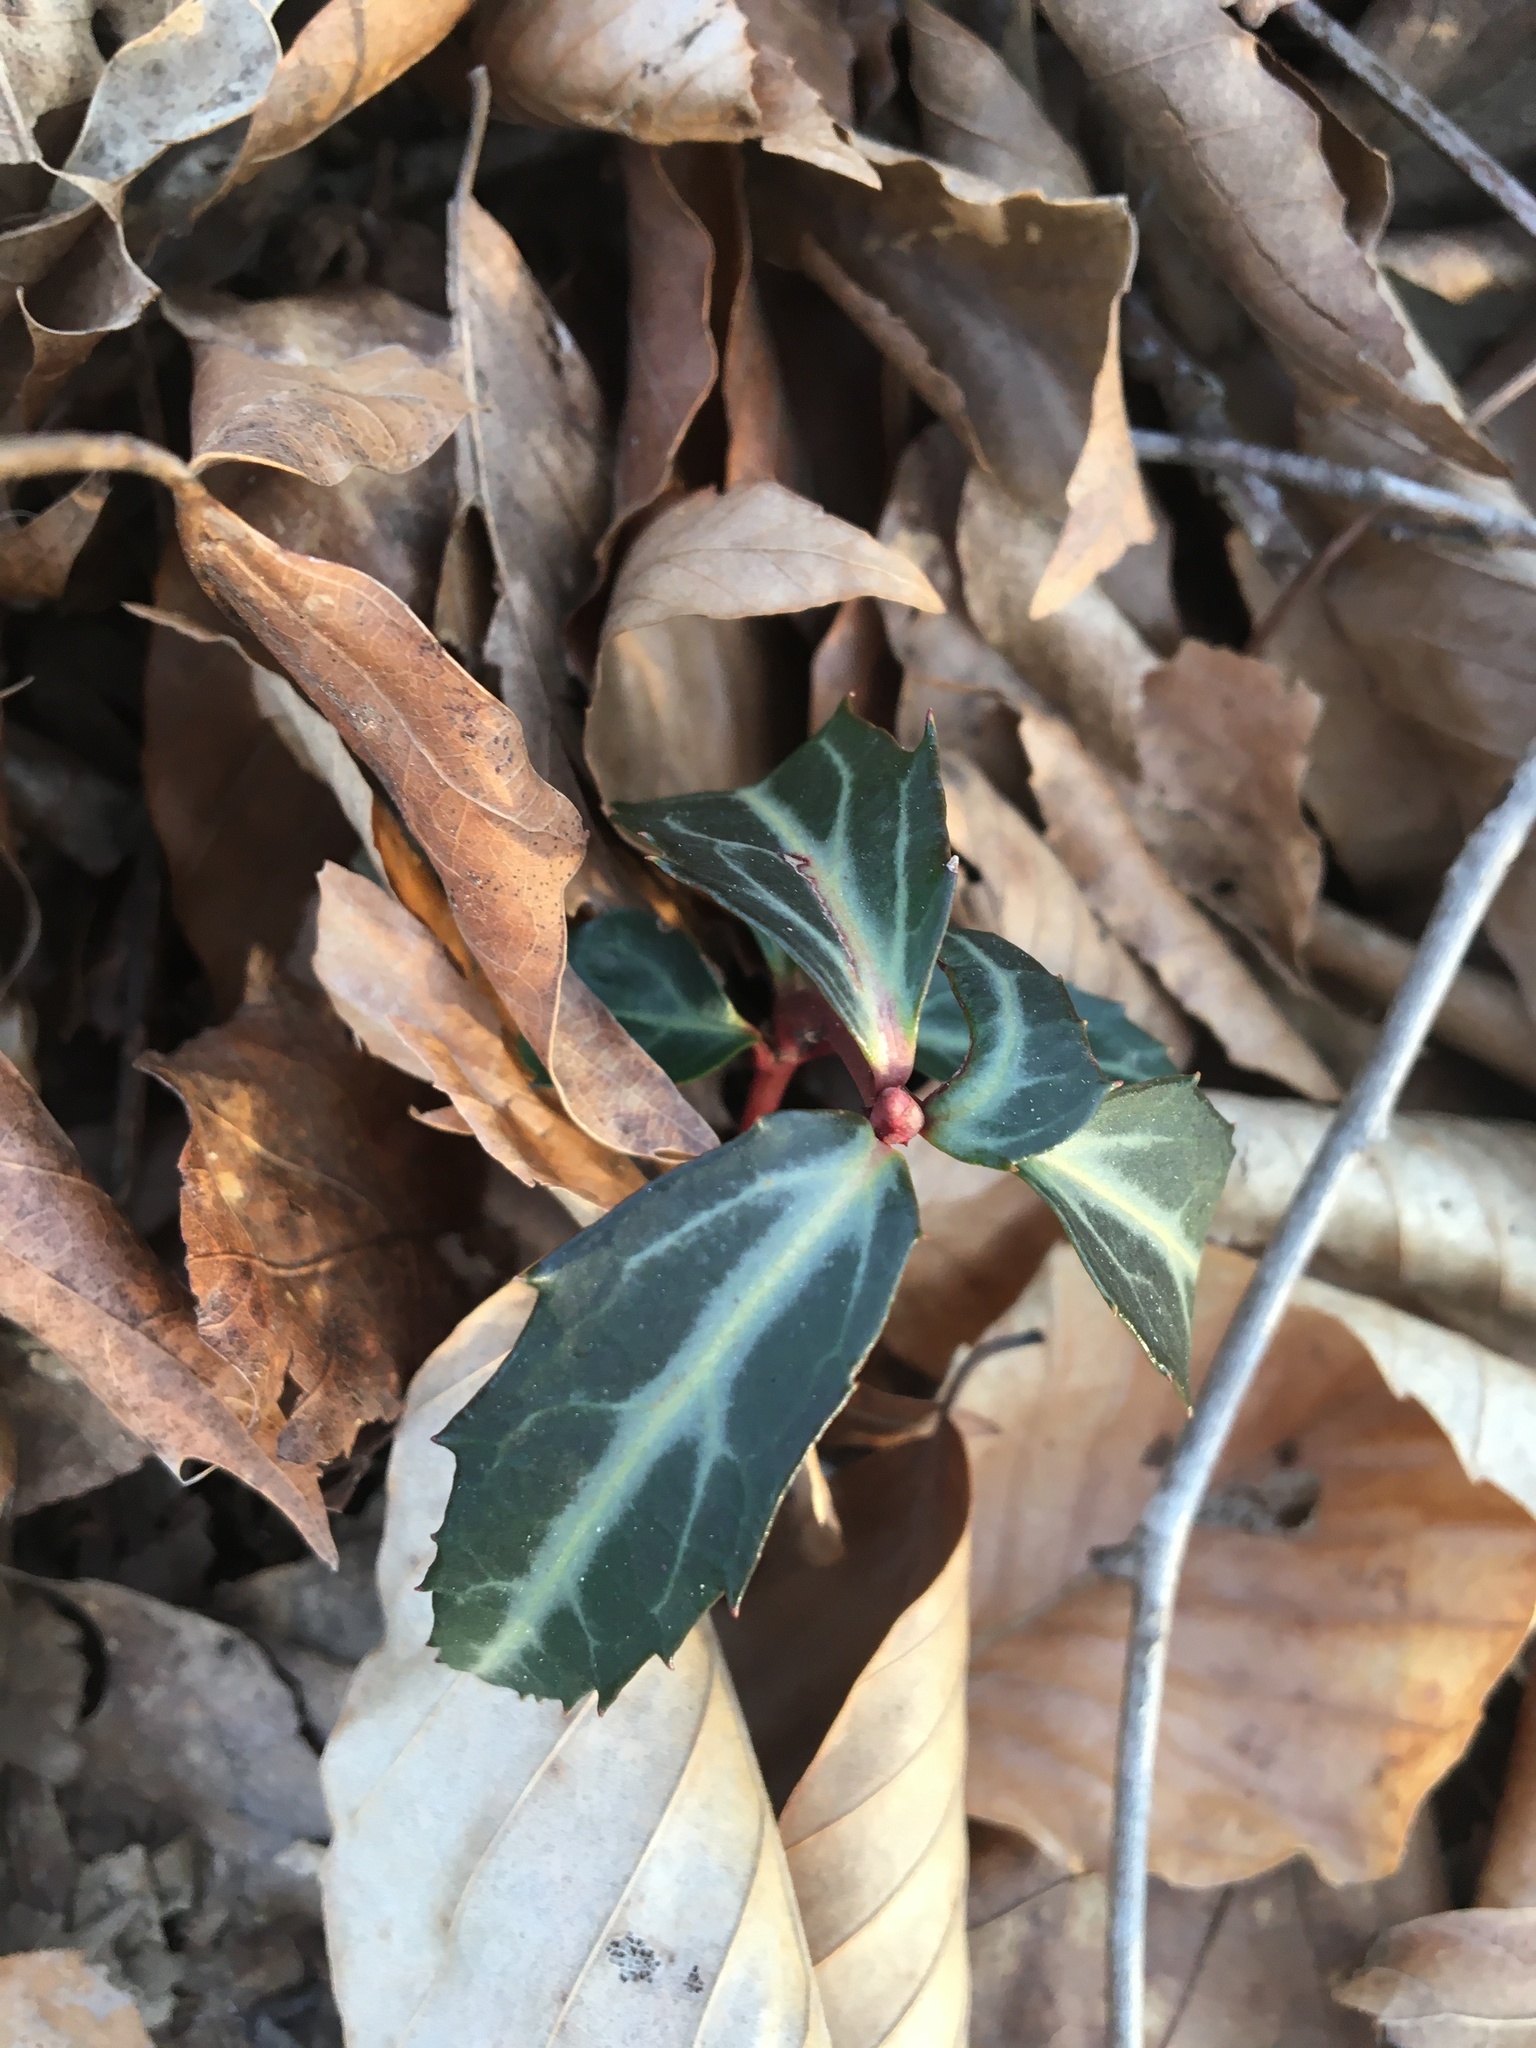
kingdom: Plantae
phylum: Tracheophyta
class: Magnoliopsida
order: Ericales
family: Ericaceae
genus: Chimaphila
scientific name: Chimaphila maculata
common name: Spotted pipsissewa
